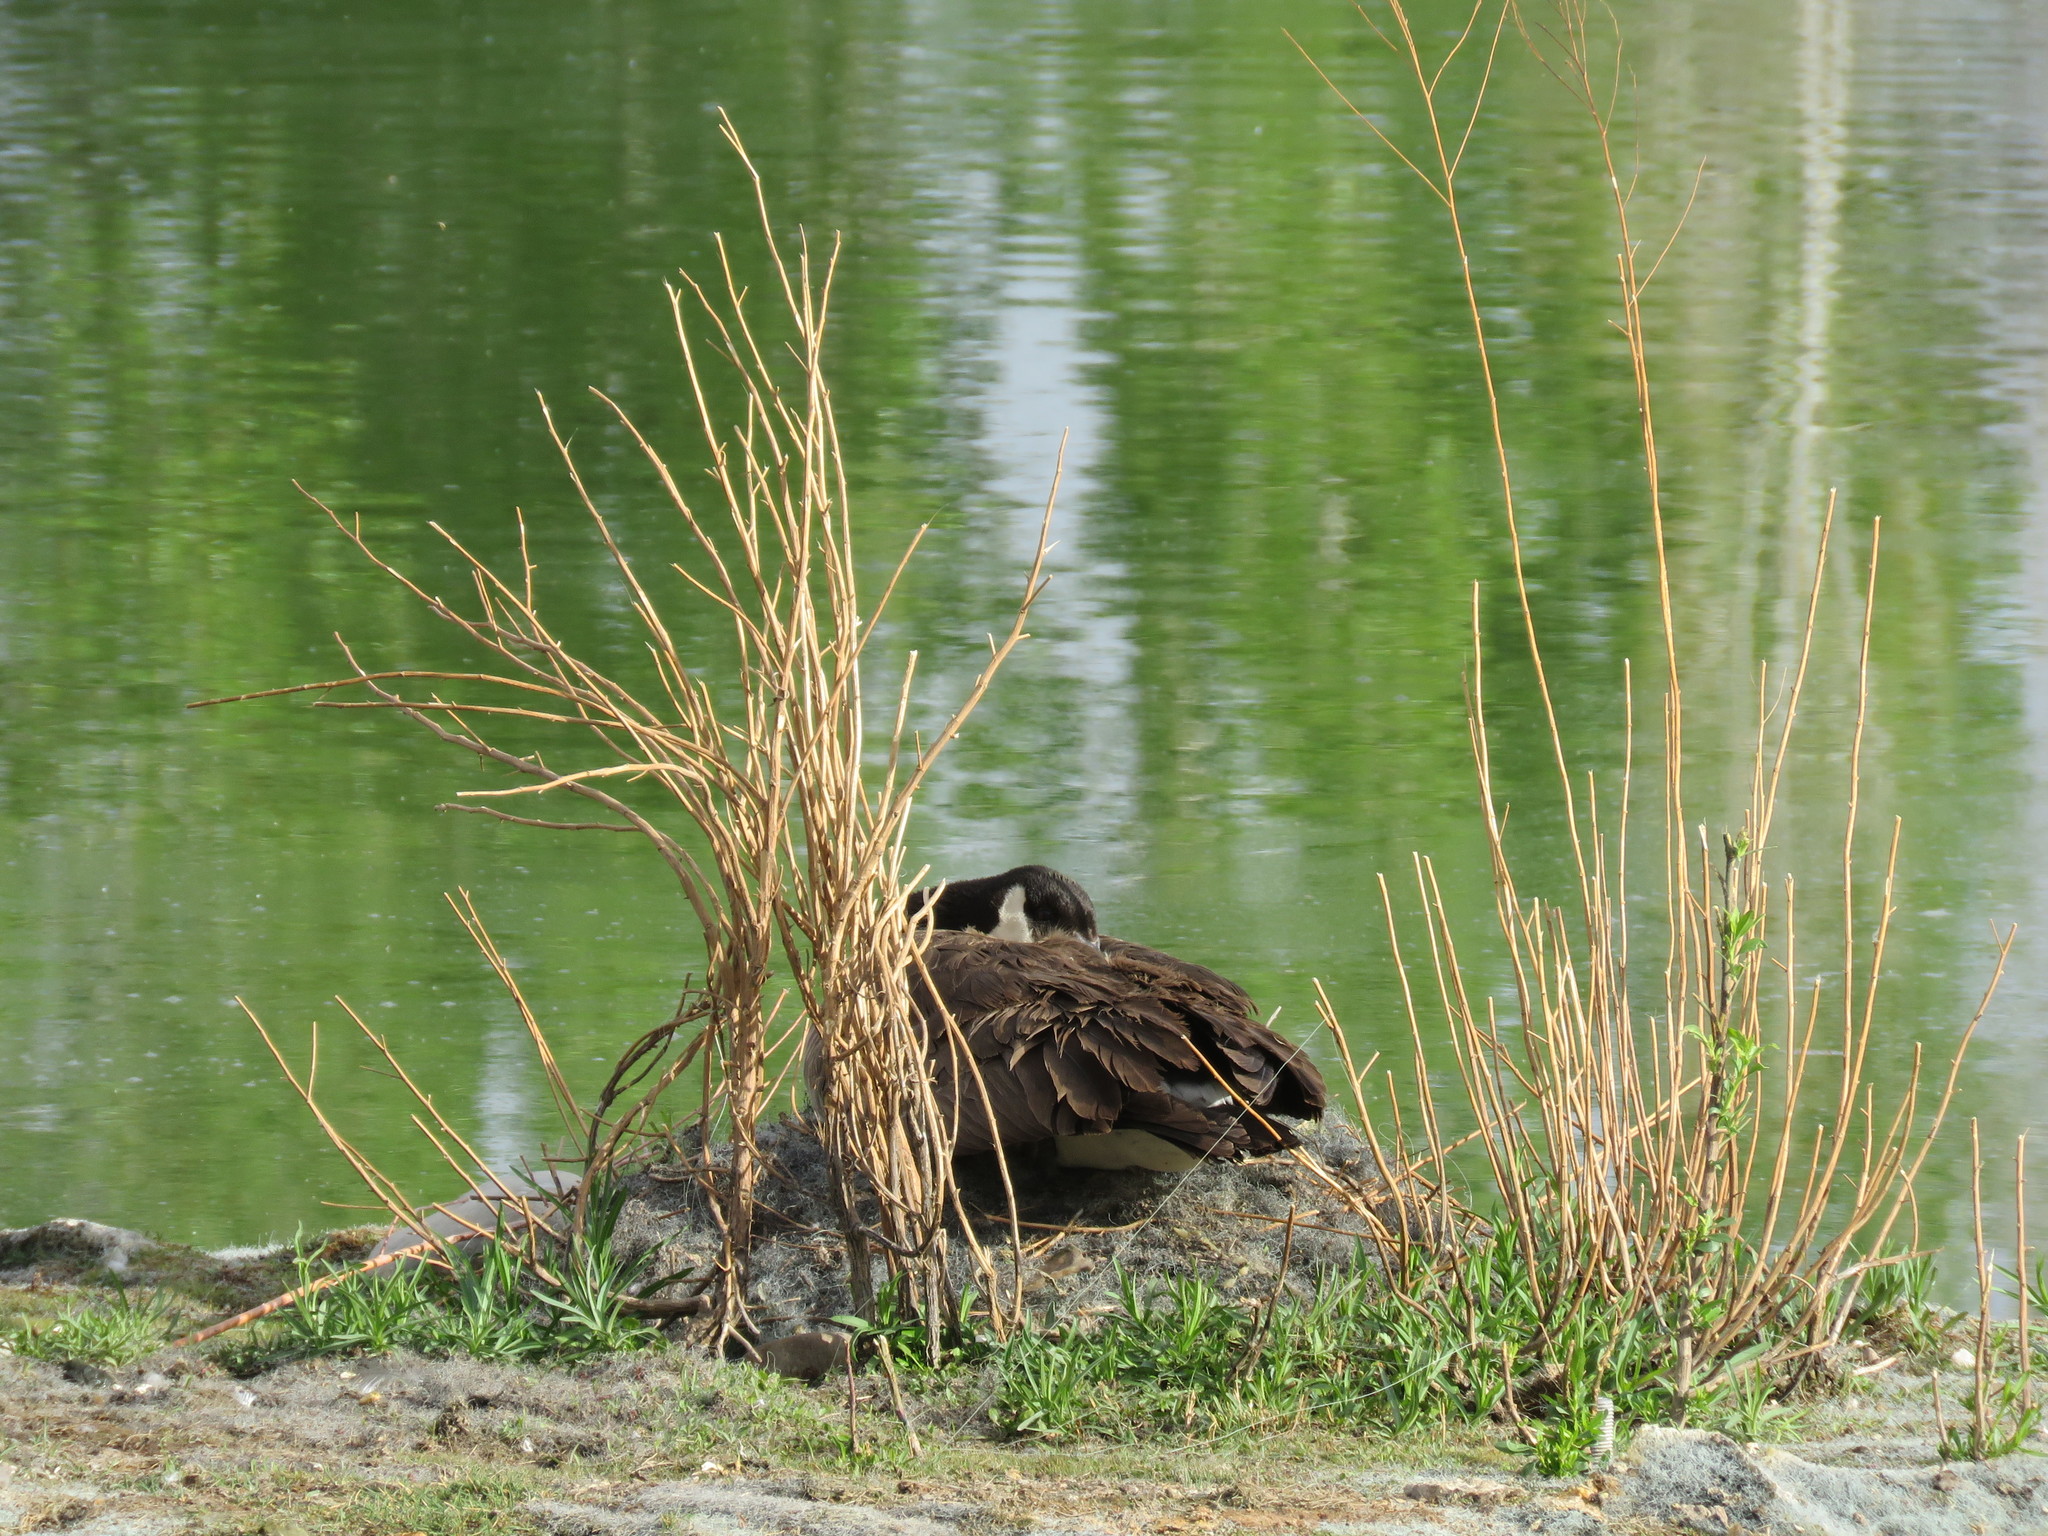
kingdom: Animalia
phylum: Chordata
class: Aves
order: Anseriformes
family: Anatidae
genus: Branta
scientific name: Branta canadensis
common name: Canada goose
